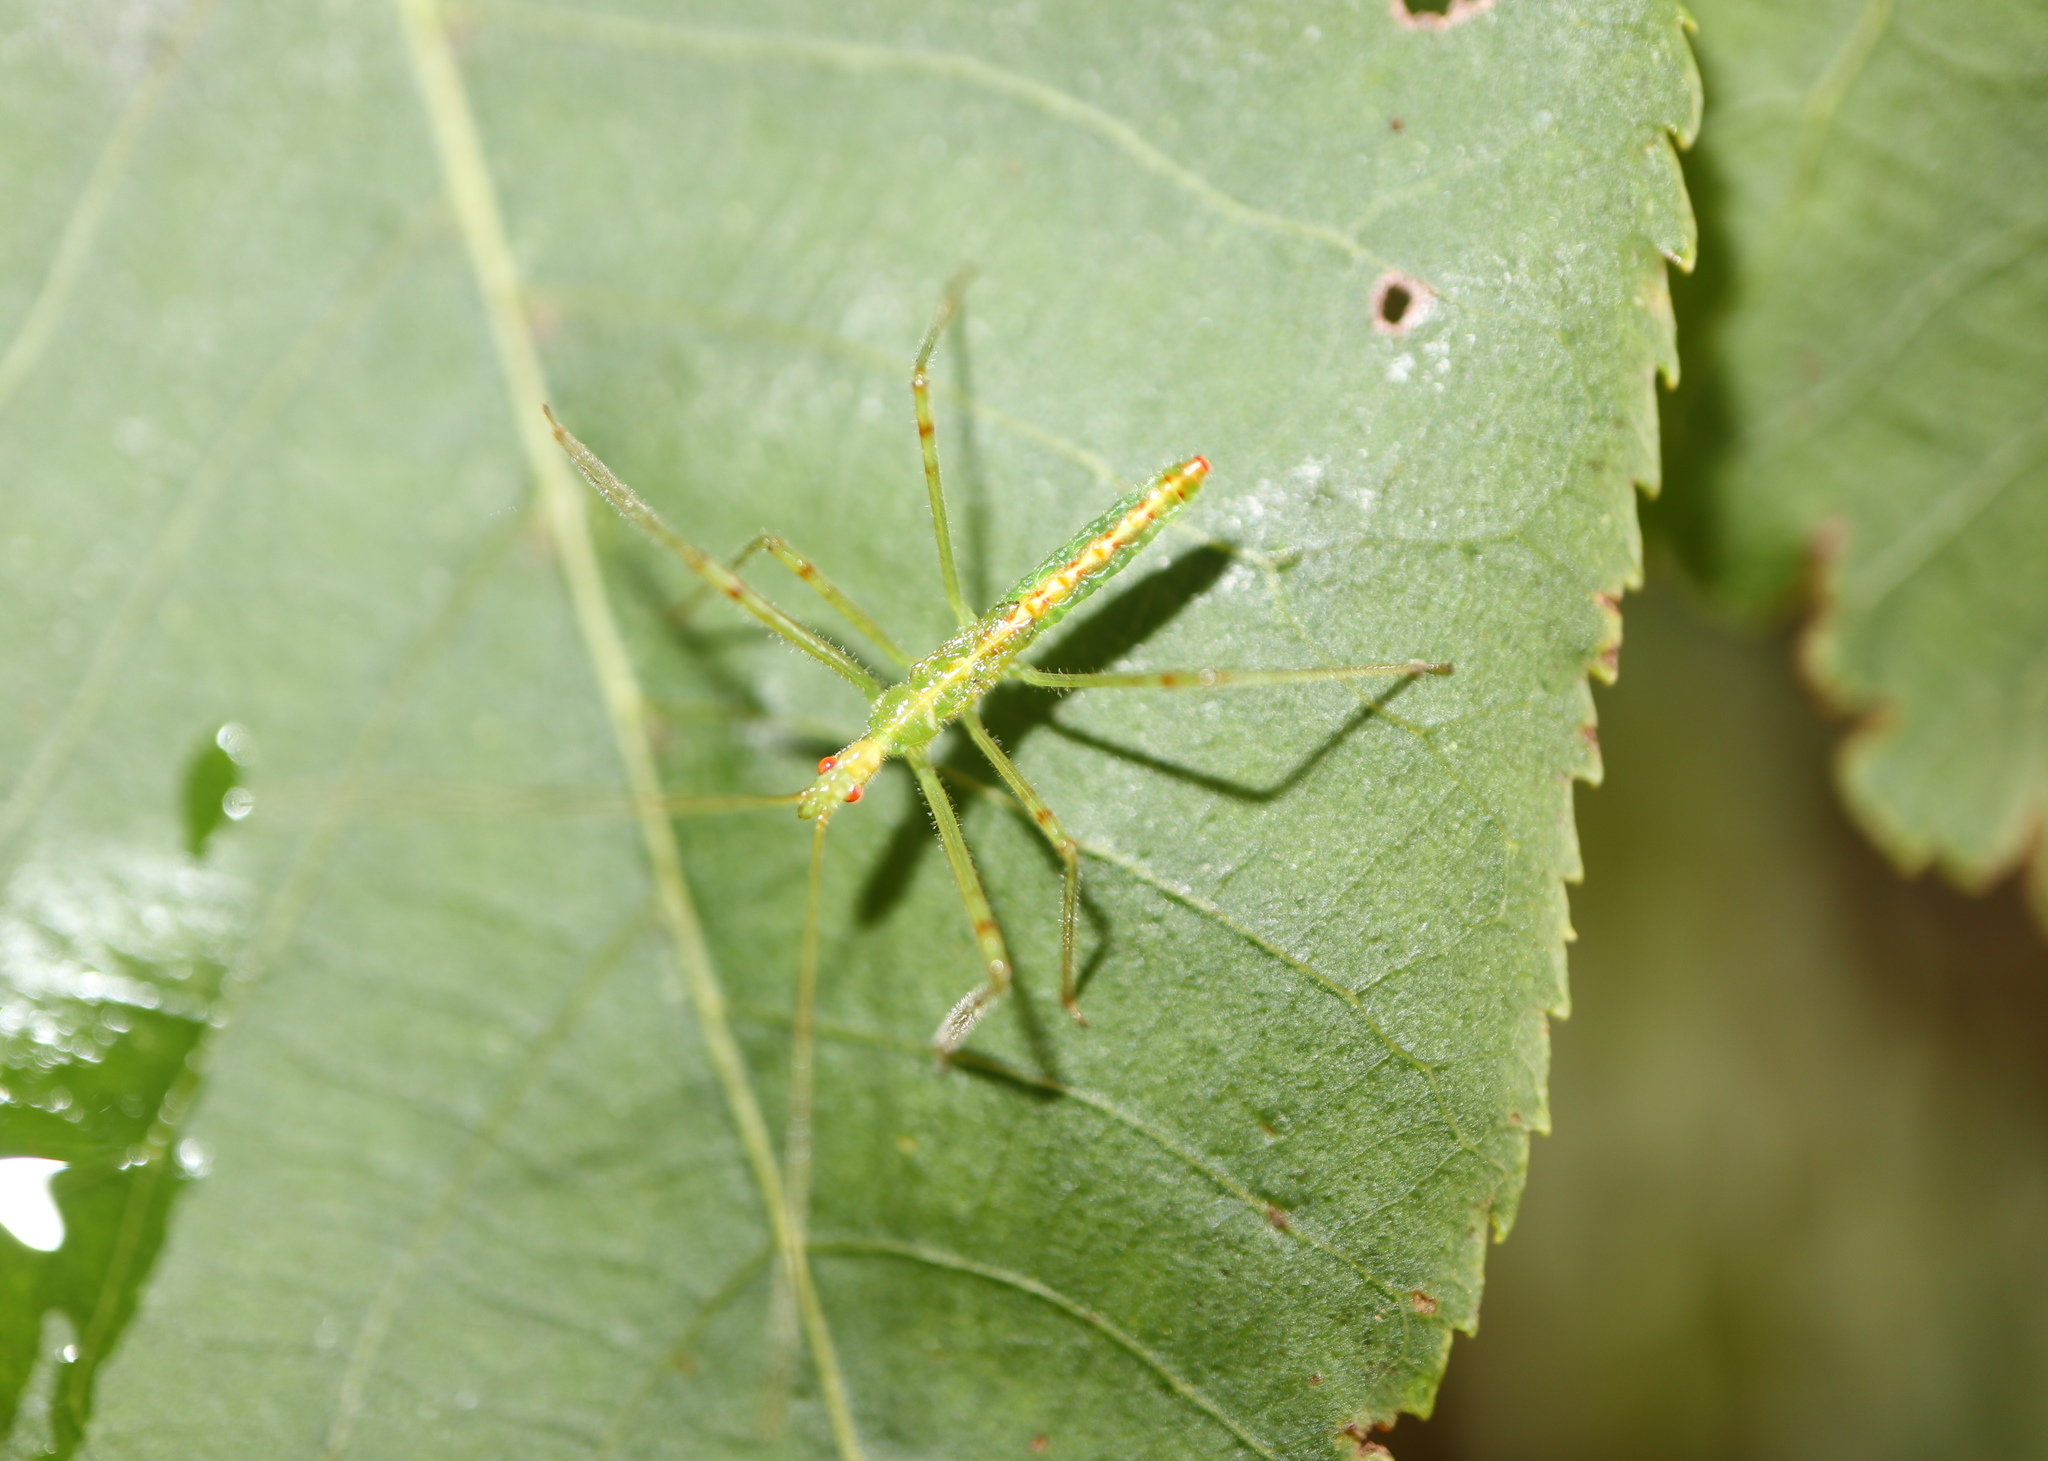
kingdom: Animalia
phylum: Arthropoda
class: Insecta
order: Hemiptera
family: Reduviidae
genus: Zelus
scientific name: Zelus luridus
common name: Pale green assassin bug
